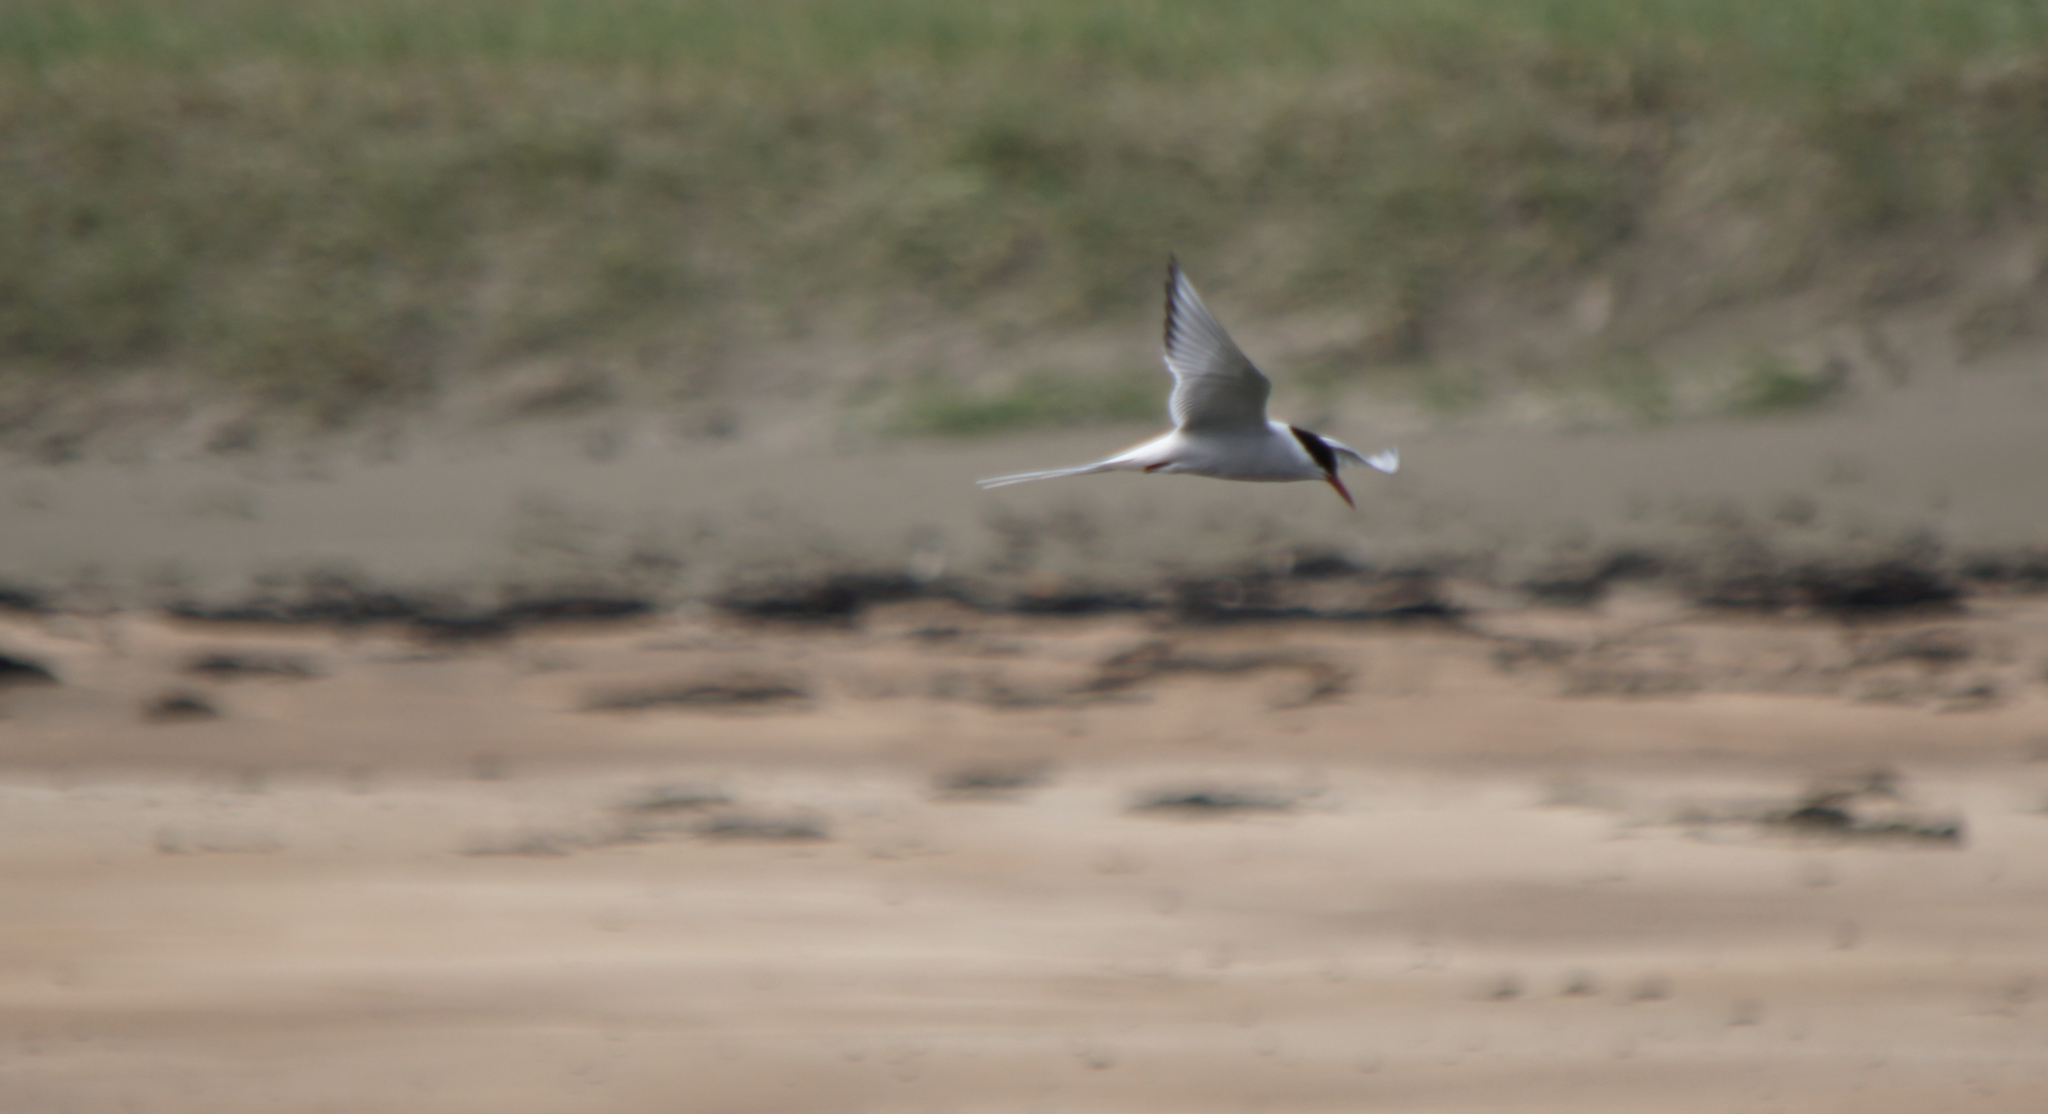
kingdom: Animalia
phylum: Chordata
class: Aves
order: Charadriiformes
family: Laridae
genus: Sterna
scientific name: Sterna paradisaea
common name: Arctic tern
